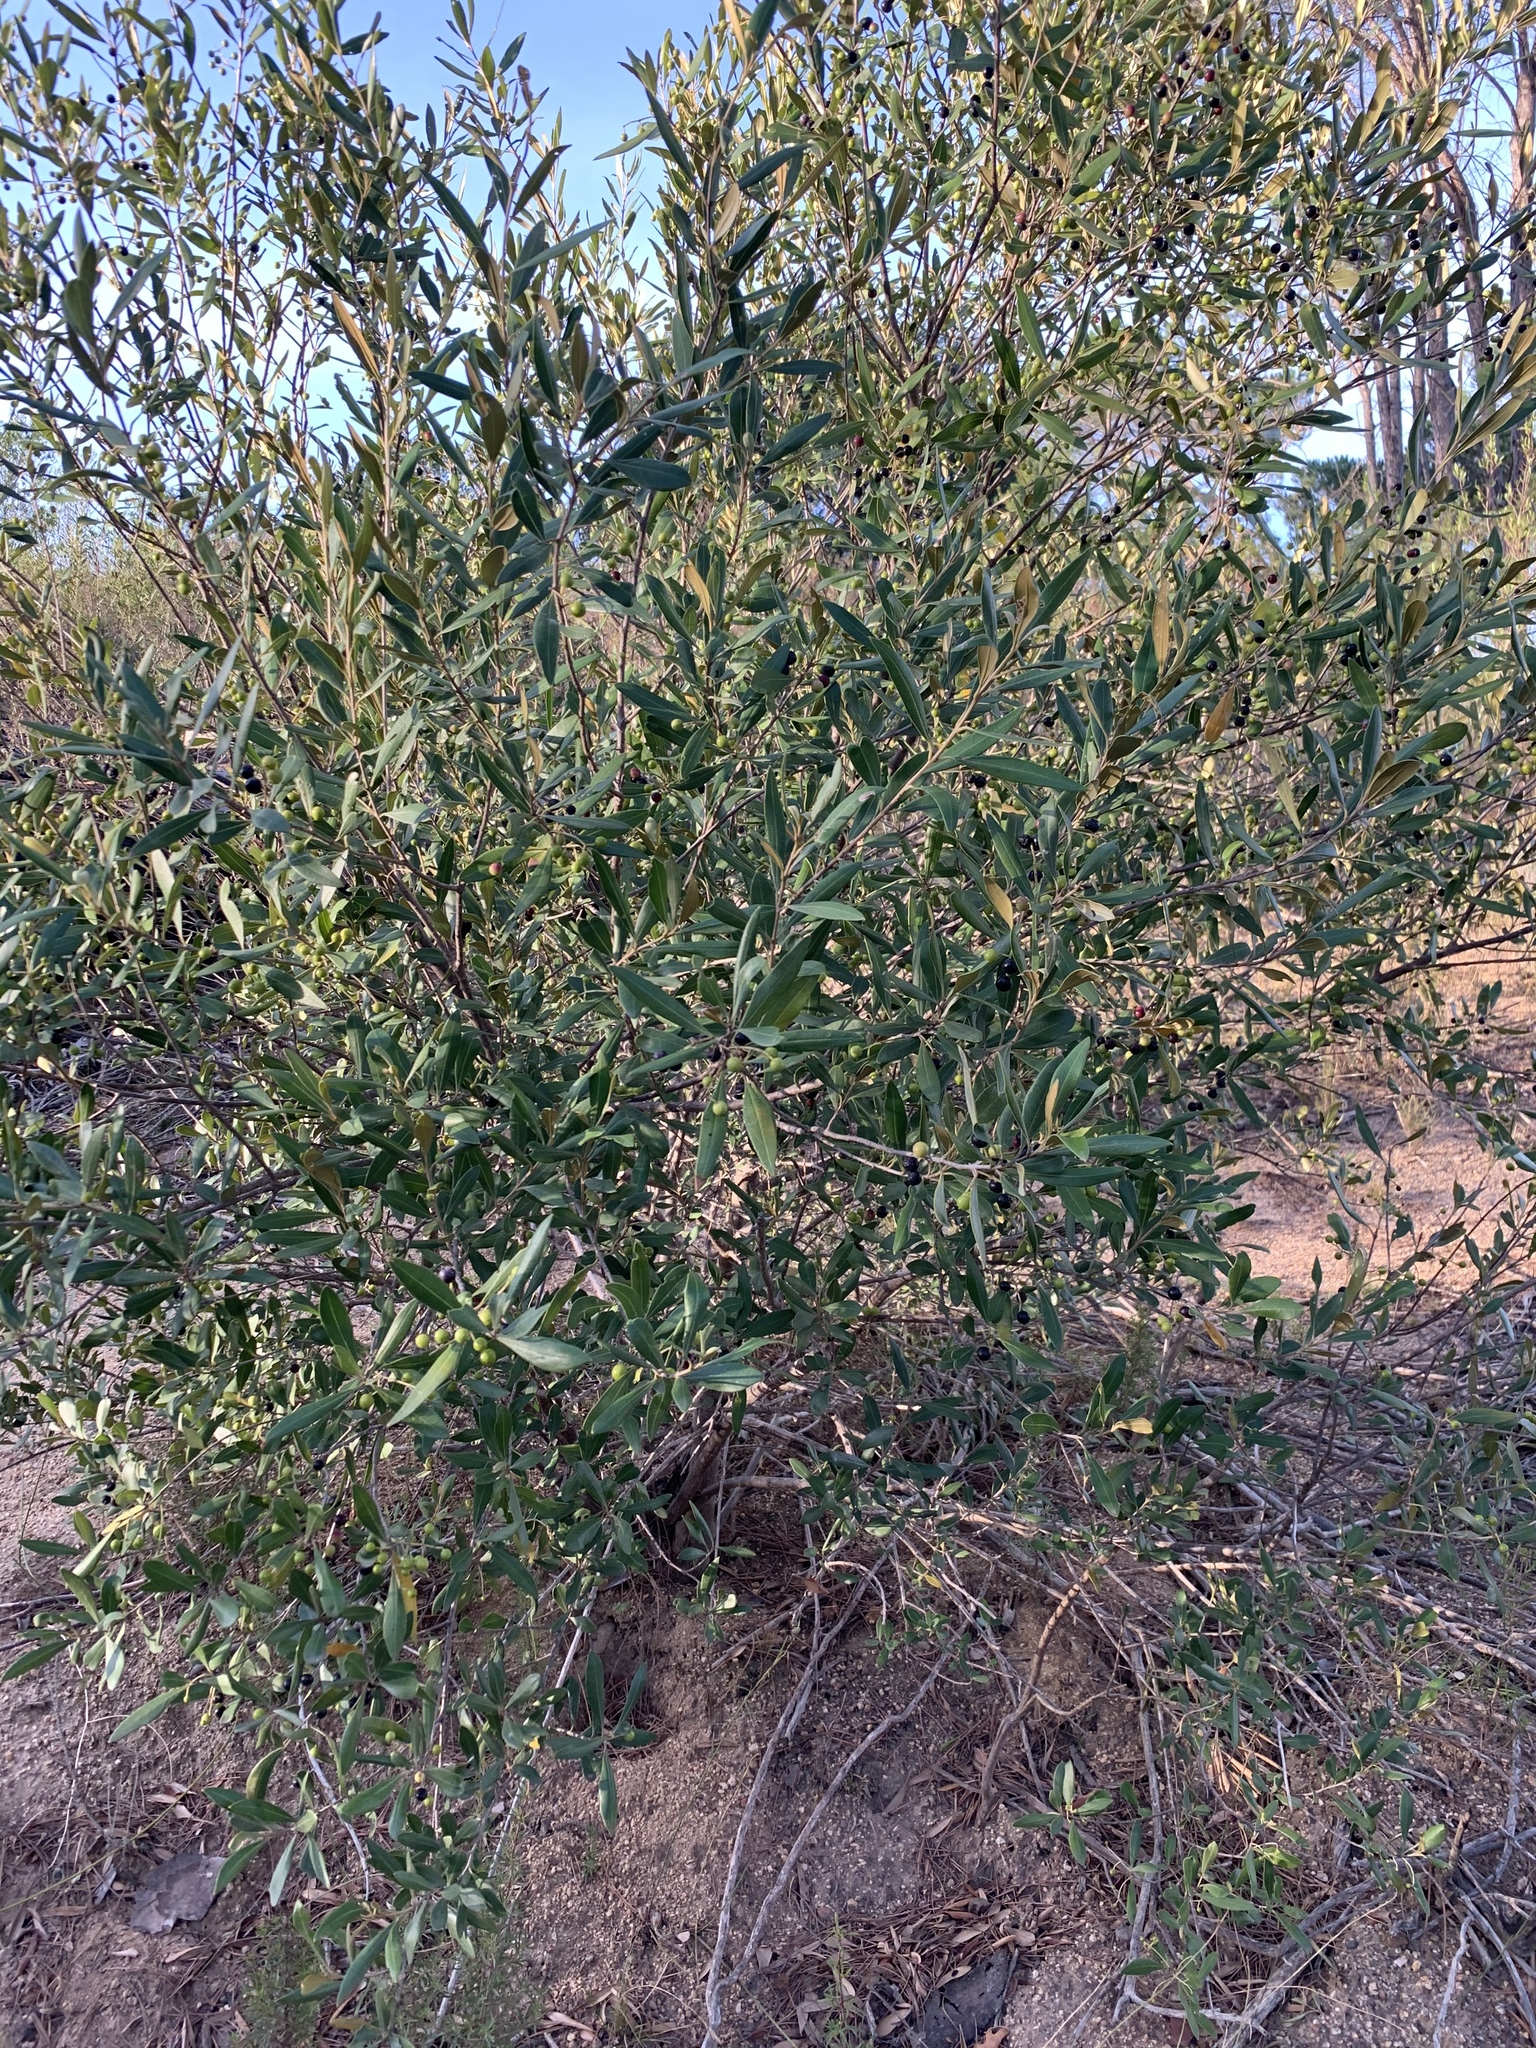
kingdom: Plantae
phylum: Tracheophyta
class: Magnoliopsida
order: Lamiales
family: Oleaceae
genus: Olea
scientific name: Olea europaea
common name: Olive
